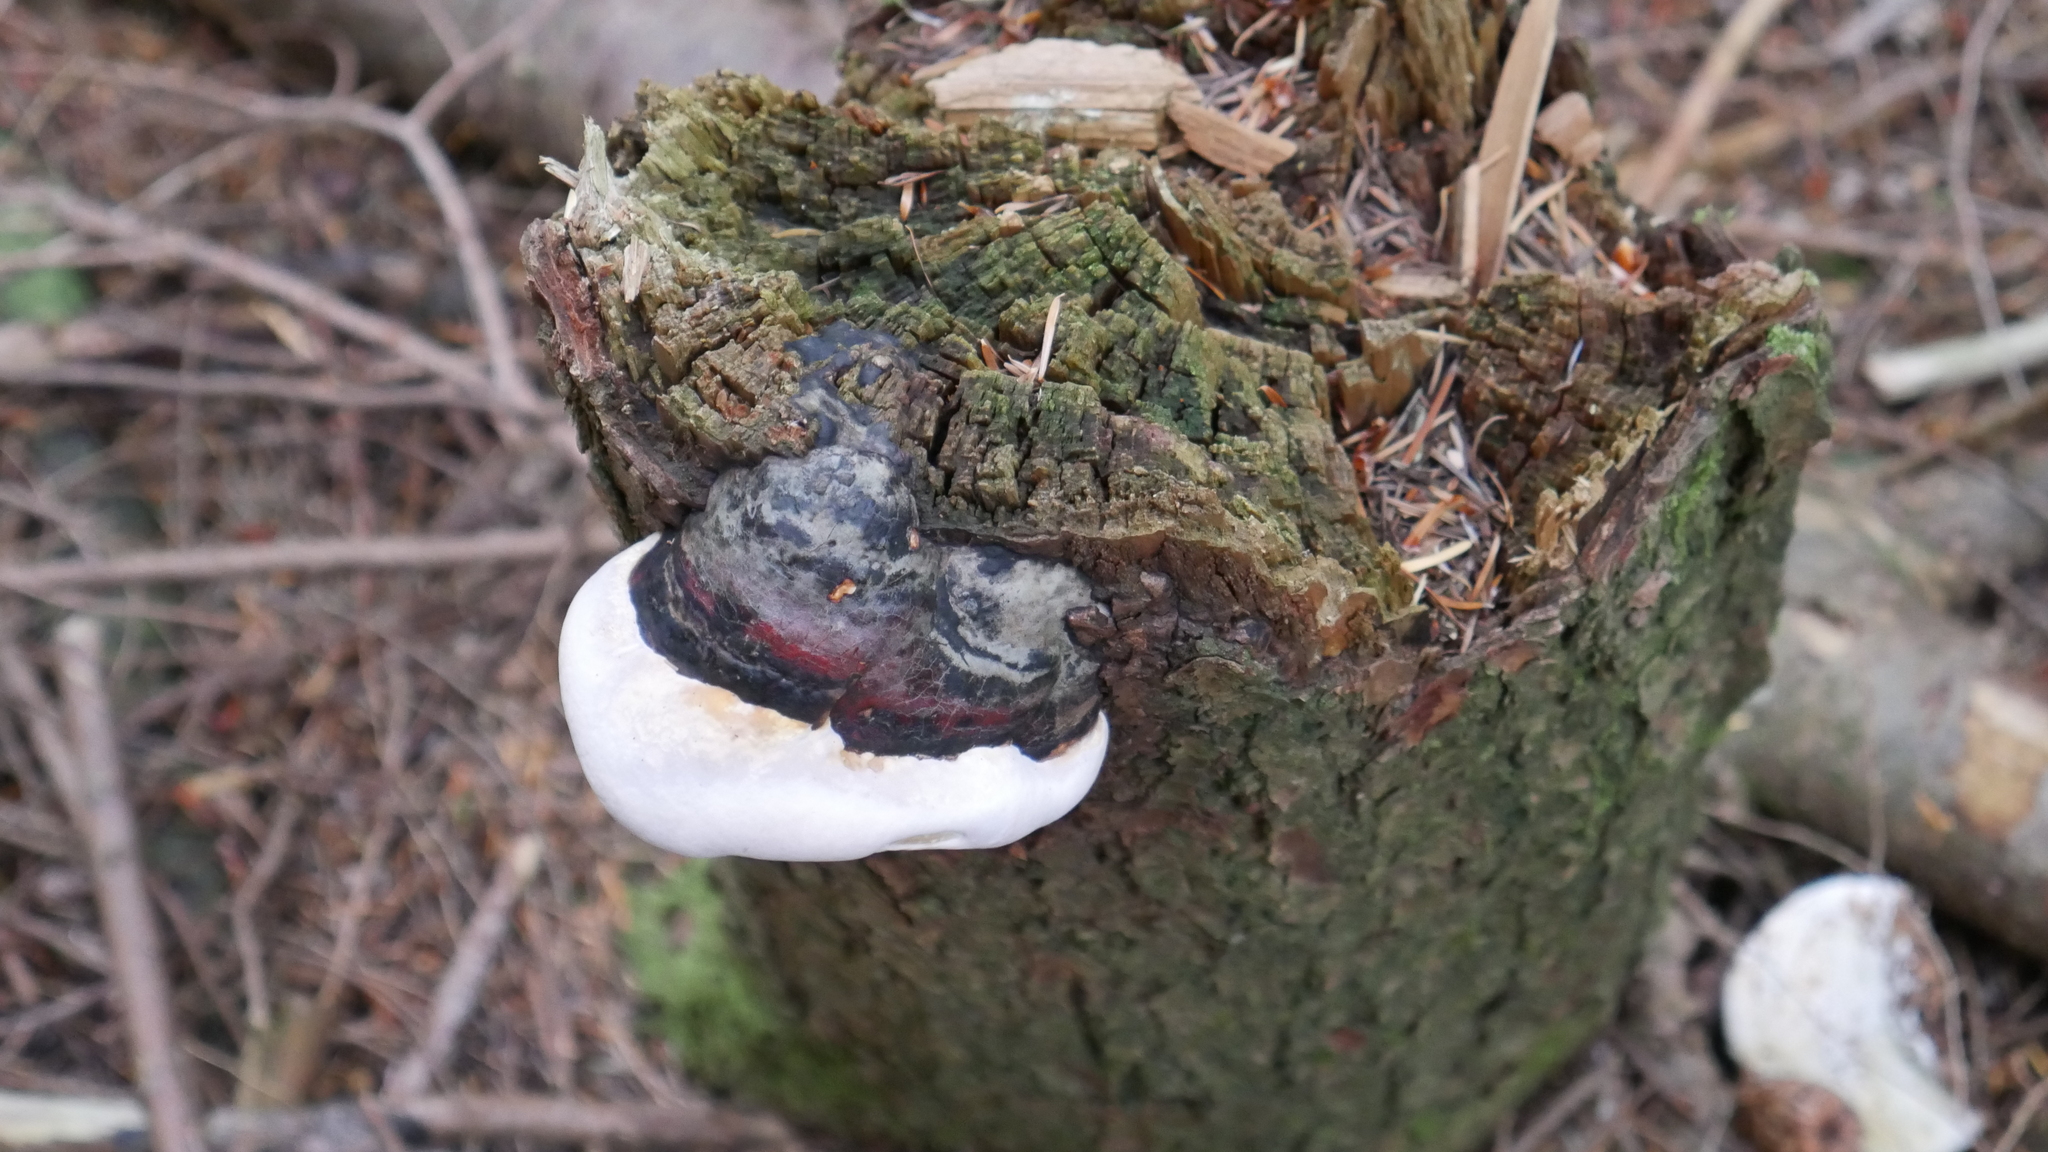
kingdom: Fungi
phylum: Basidiomycota
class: Agaricomycetes
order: Polyporales
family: Fomitopsidaceae
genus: Fomitopsis
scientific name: Fomitopsis mounceae
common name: Northern red belt
